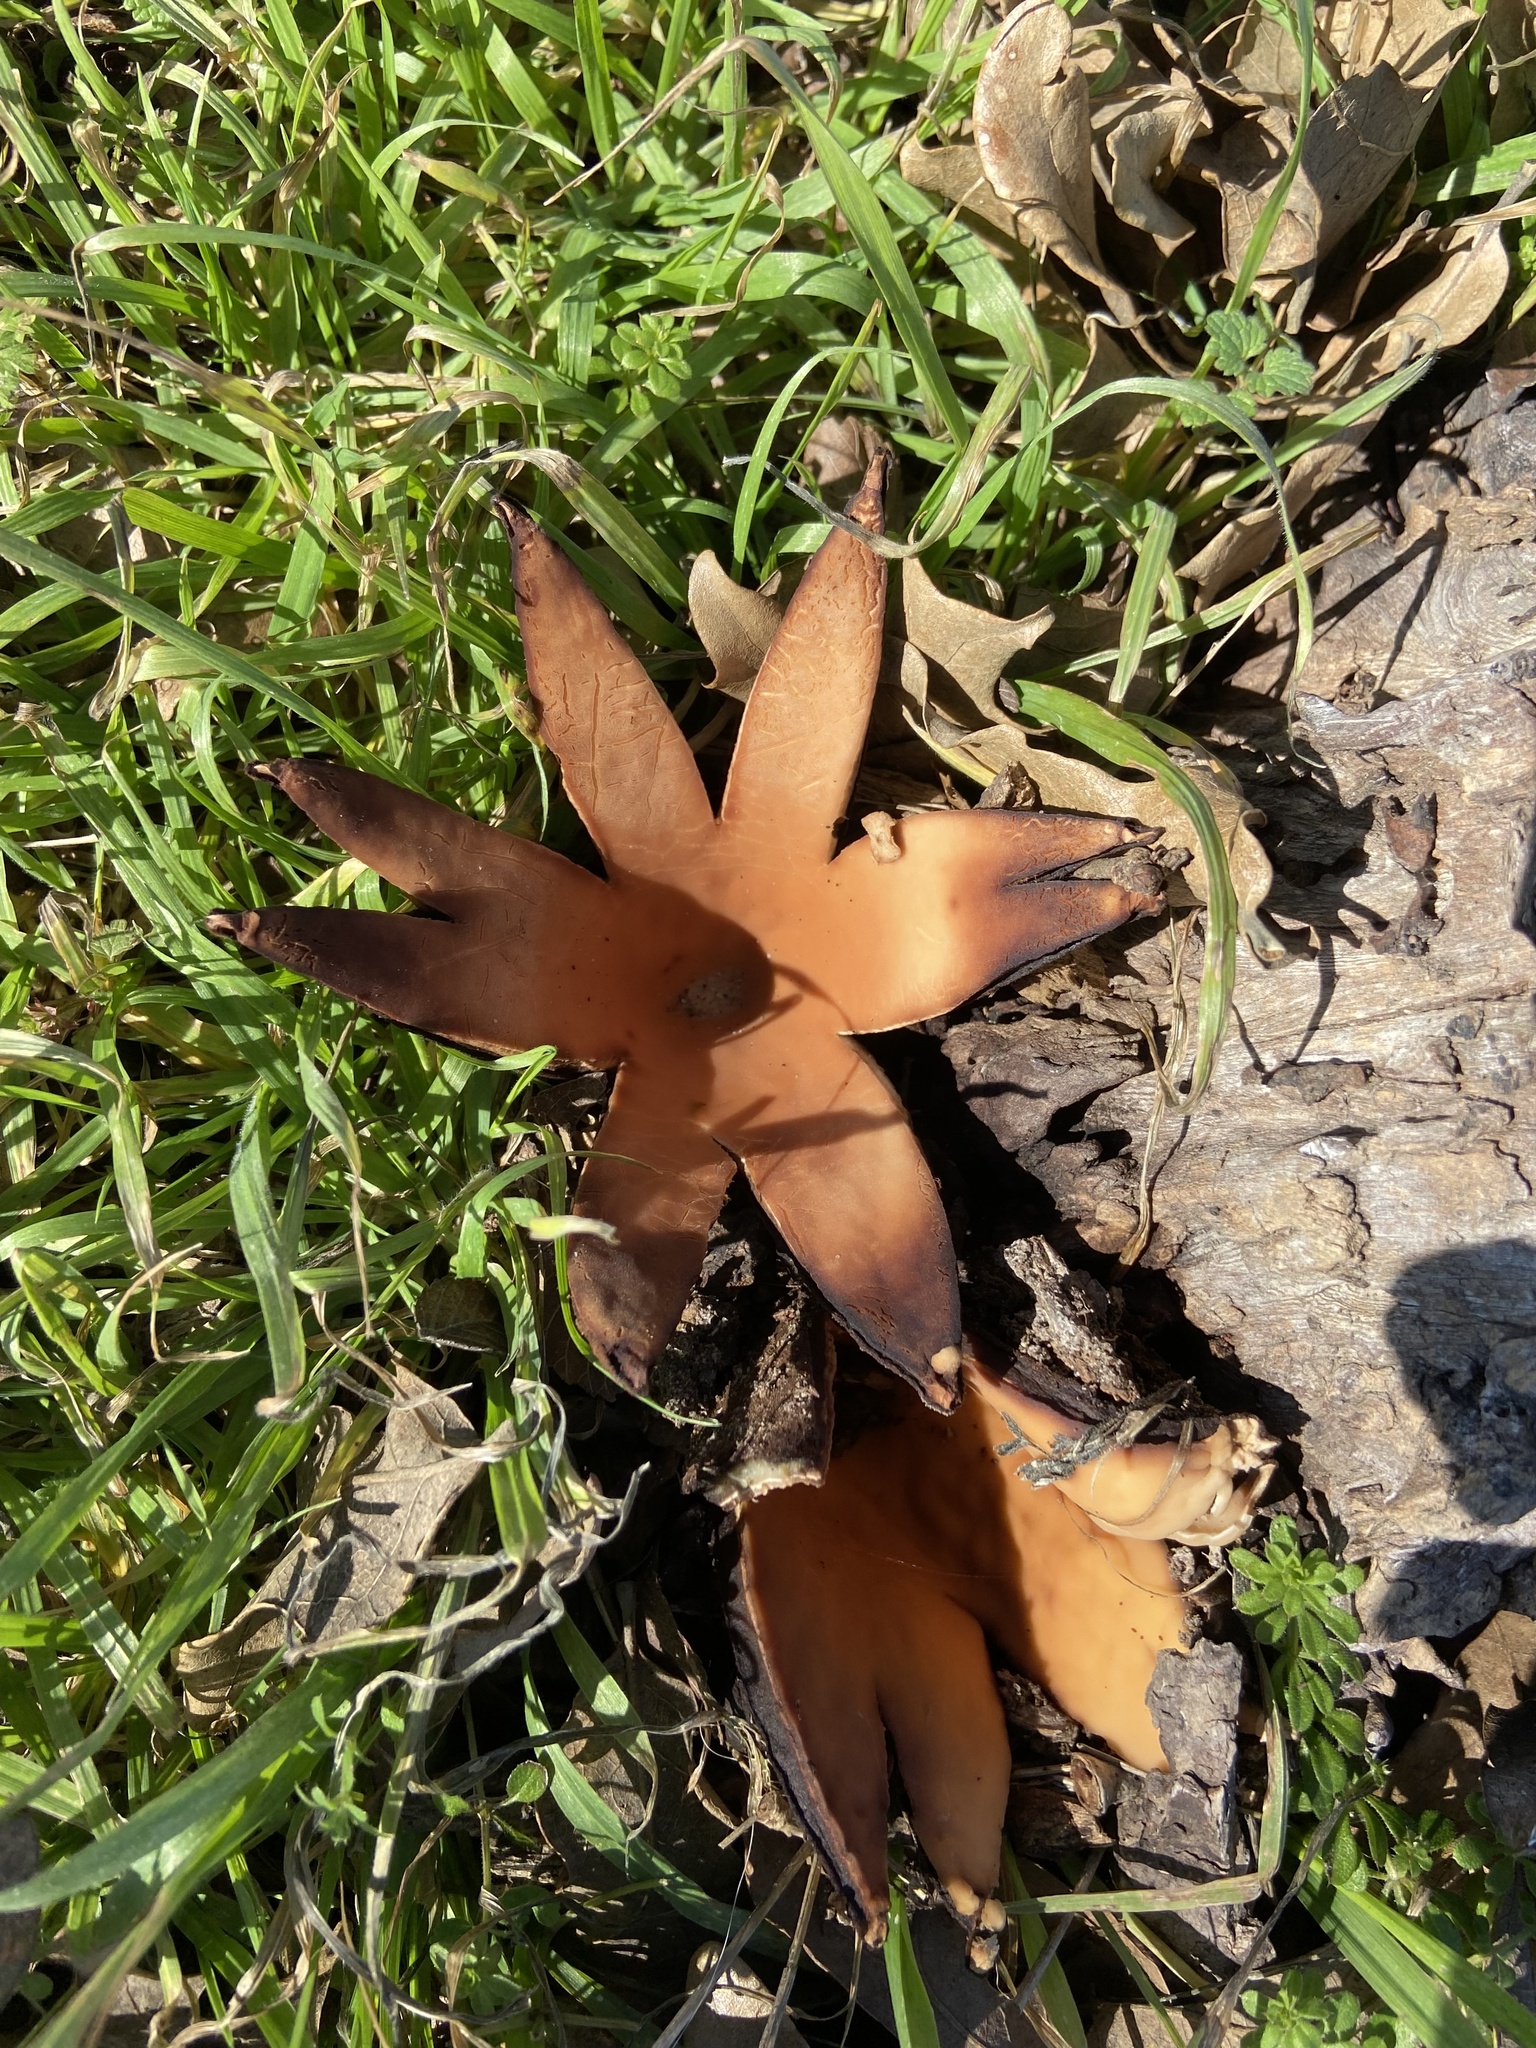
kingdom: Fungi
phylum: Ascomycota
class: Pezizomycetes
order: Pezizales
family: Chorioactidaceae
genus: Chorioactis
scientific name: Chorioactis geaster
